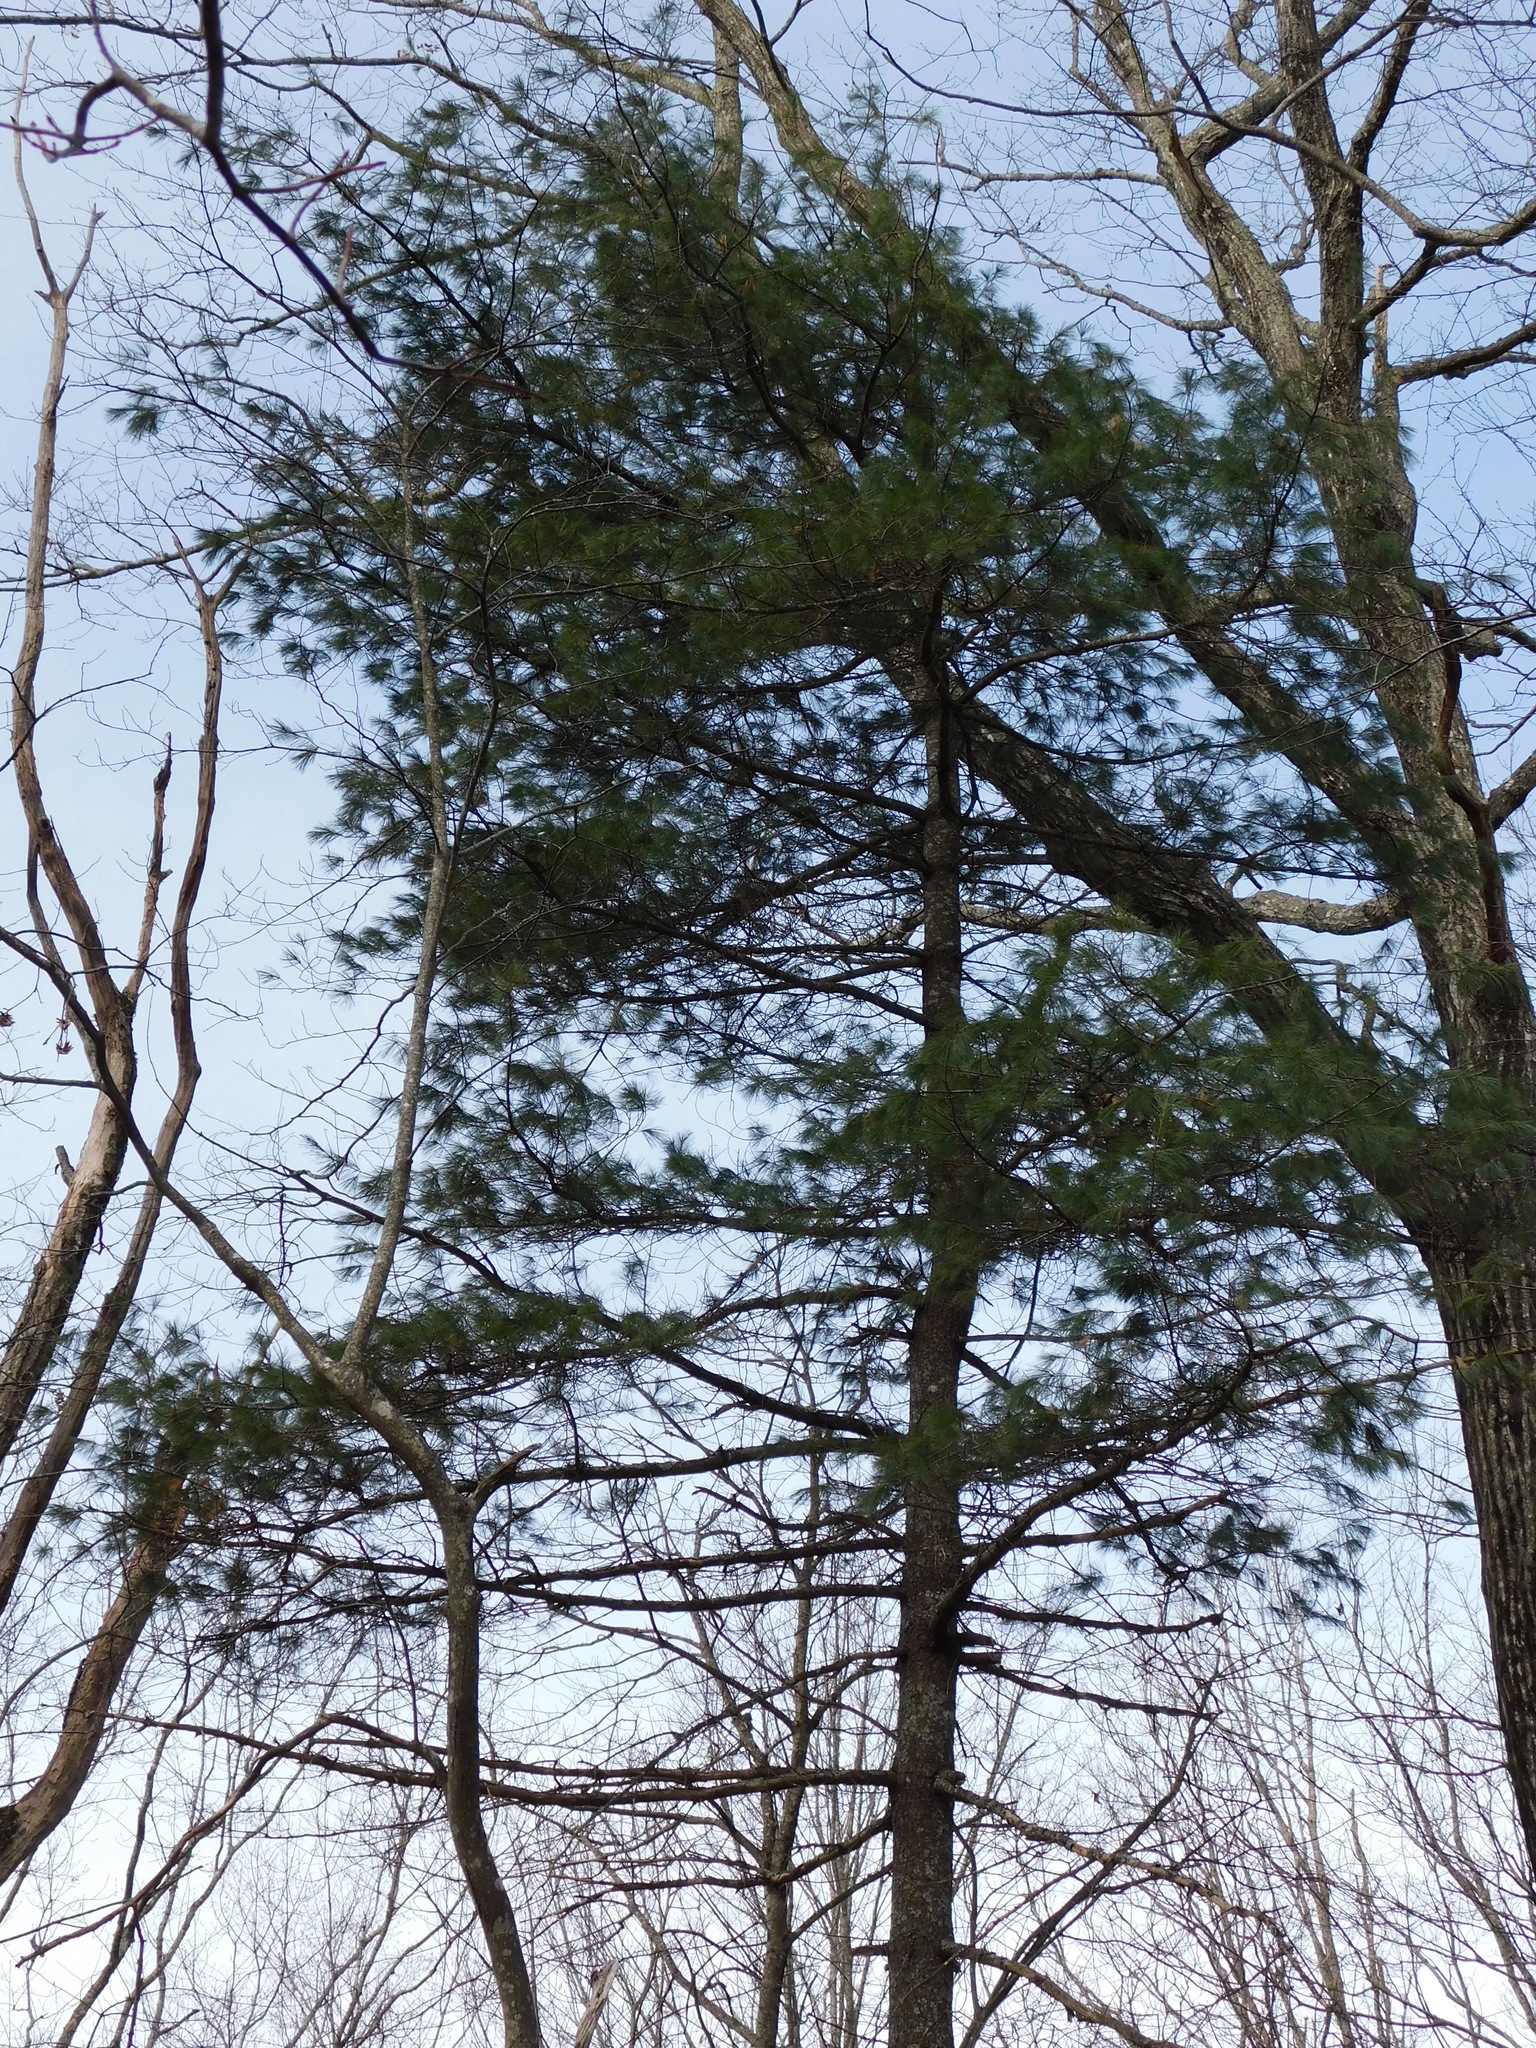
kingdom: Plantae
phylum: Tracheophyta
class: Pinopsida
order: Pinales
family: Pinaceae
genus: Pinus
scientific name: Pinus strobus
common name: Weymouth pine
